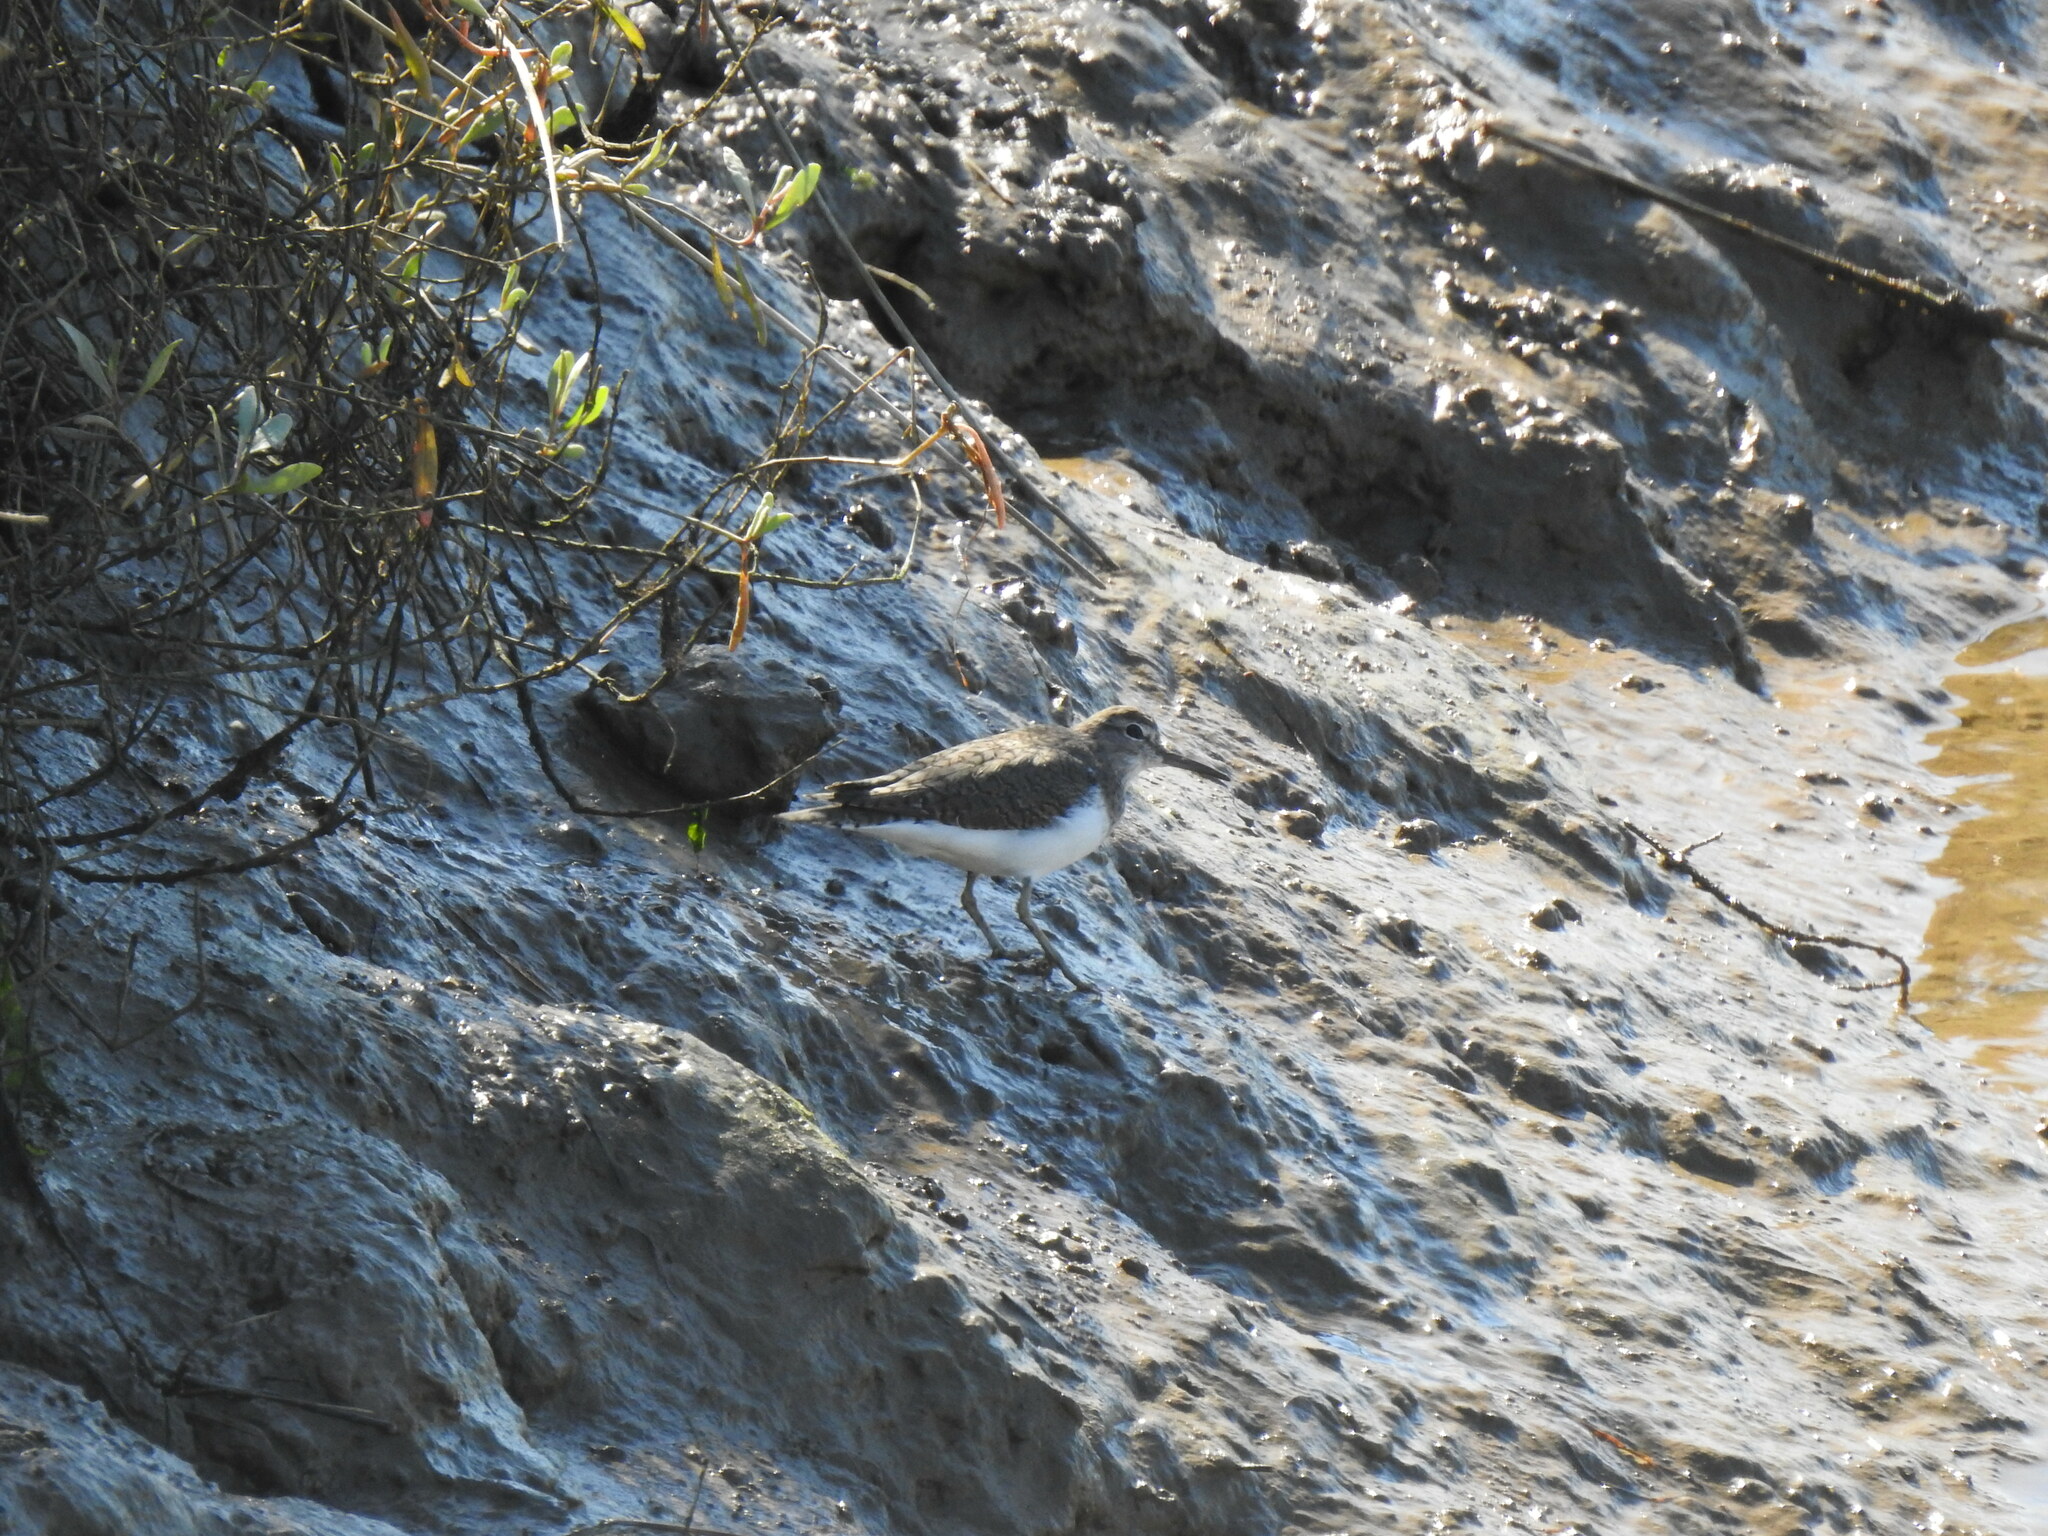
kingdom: Animalia
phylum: Chordata
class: Aves
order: Charadriiformes
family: Scolopacidae
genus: Actitis
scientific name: Actitis hypoleucos
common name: Common sandpiper
